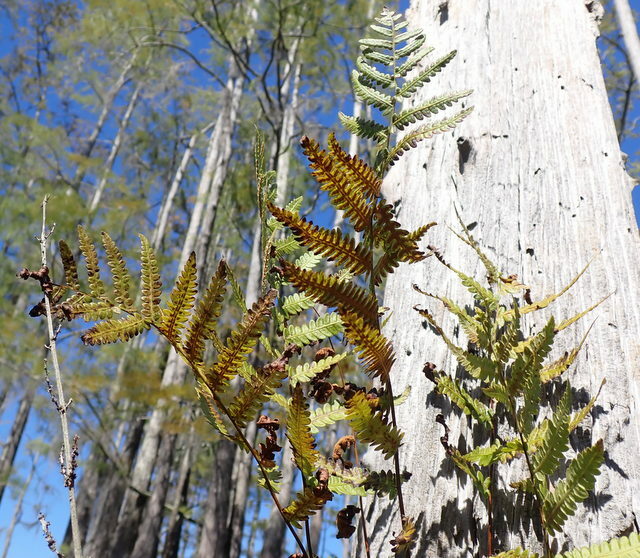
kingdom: Plantae
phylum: Tracheophyta
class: Polypodiopsida
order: Polypodiales
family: Blechnaceae
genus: Anchistea
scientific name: Anchistea virginica
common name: Virginia chain fern
